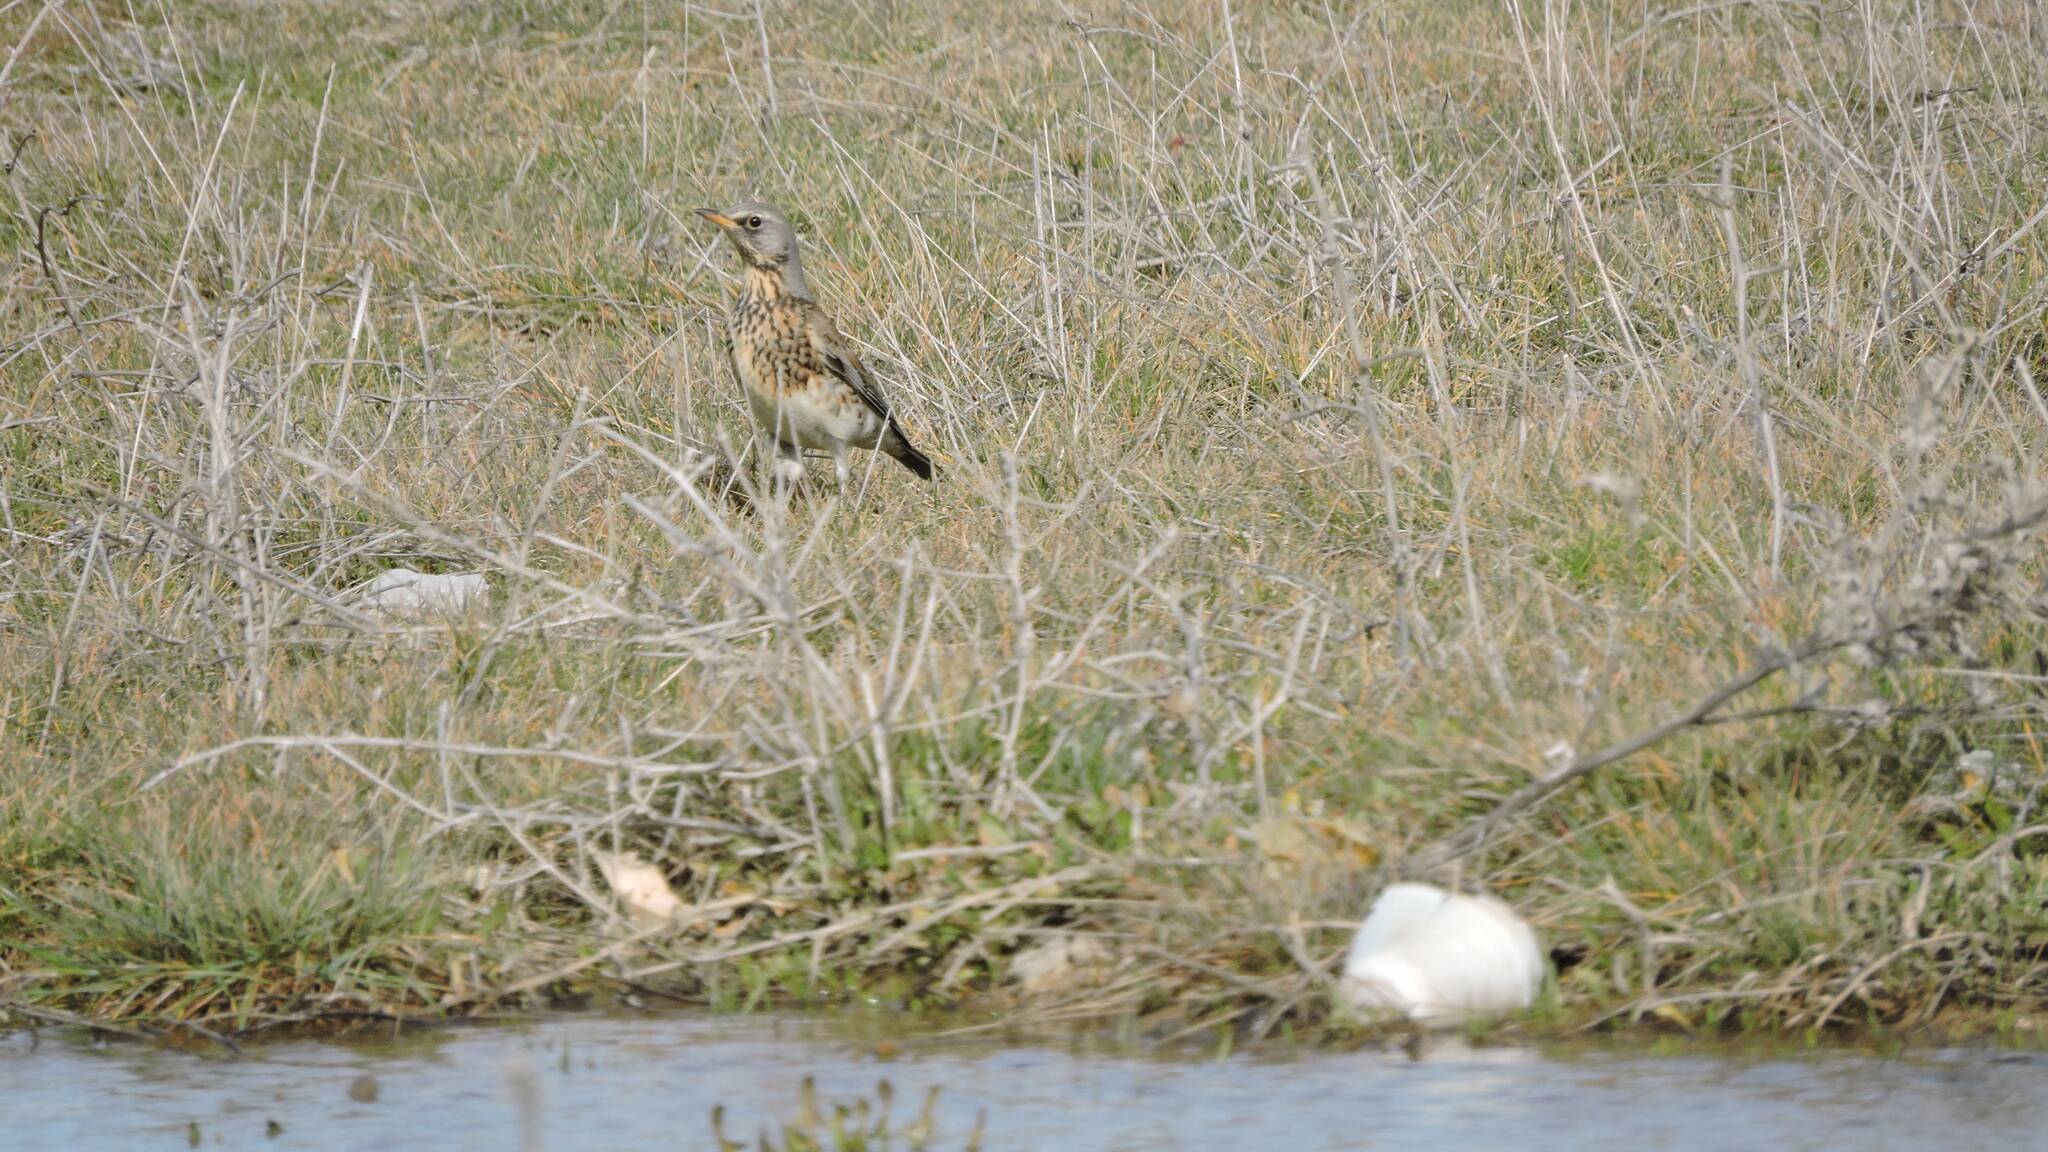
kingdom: Animalia
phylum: Chordata
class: Aves
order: Passeriformes
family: Turdidae
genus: Turdus
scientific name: Turdus pilaris
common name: Fieldfare
